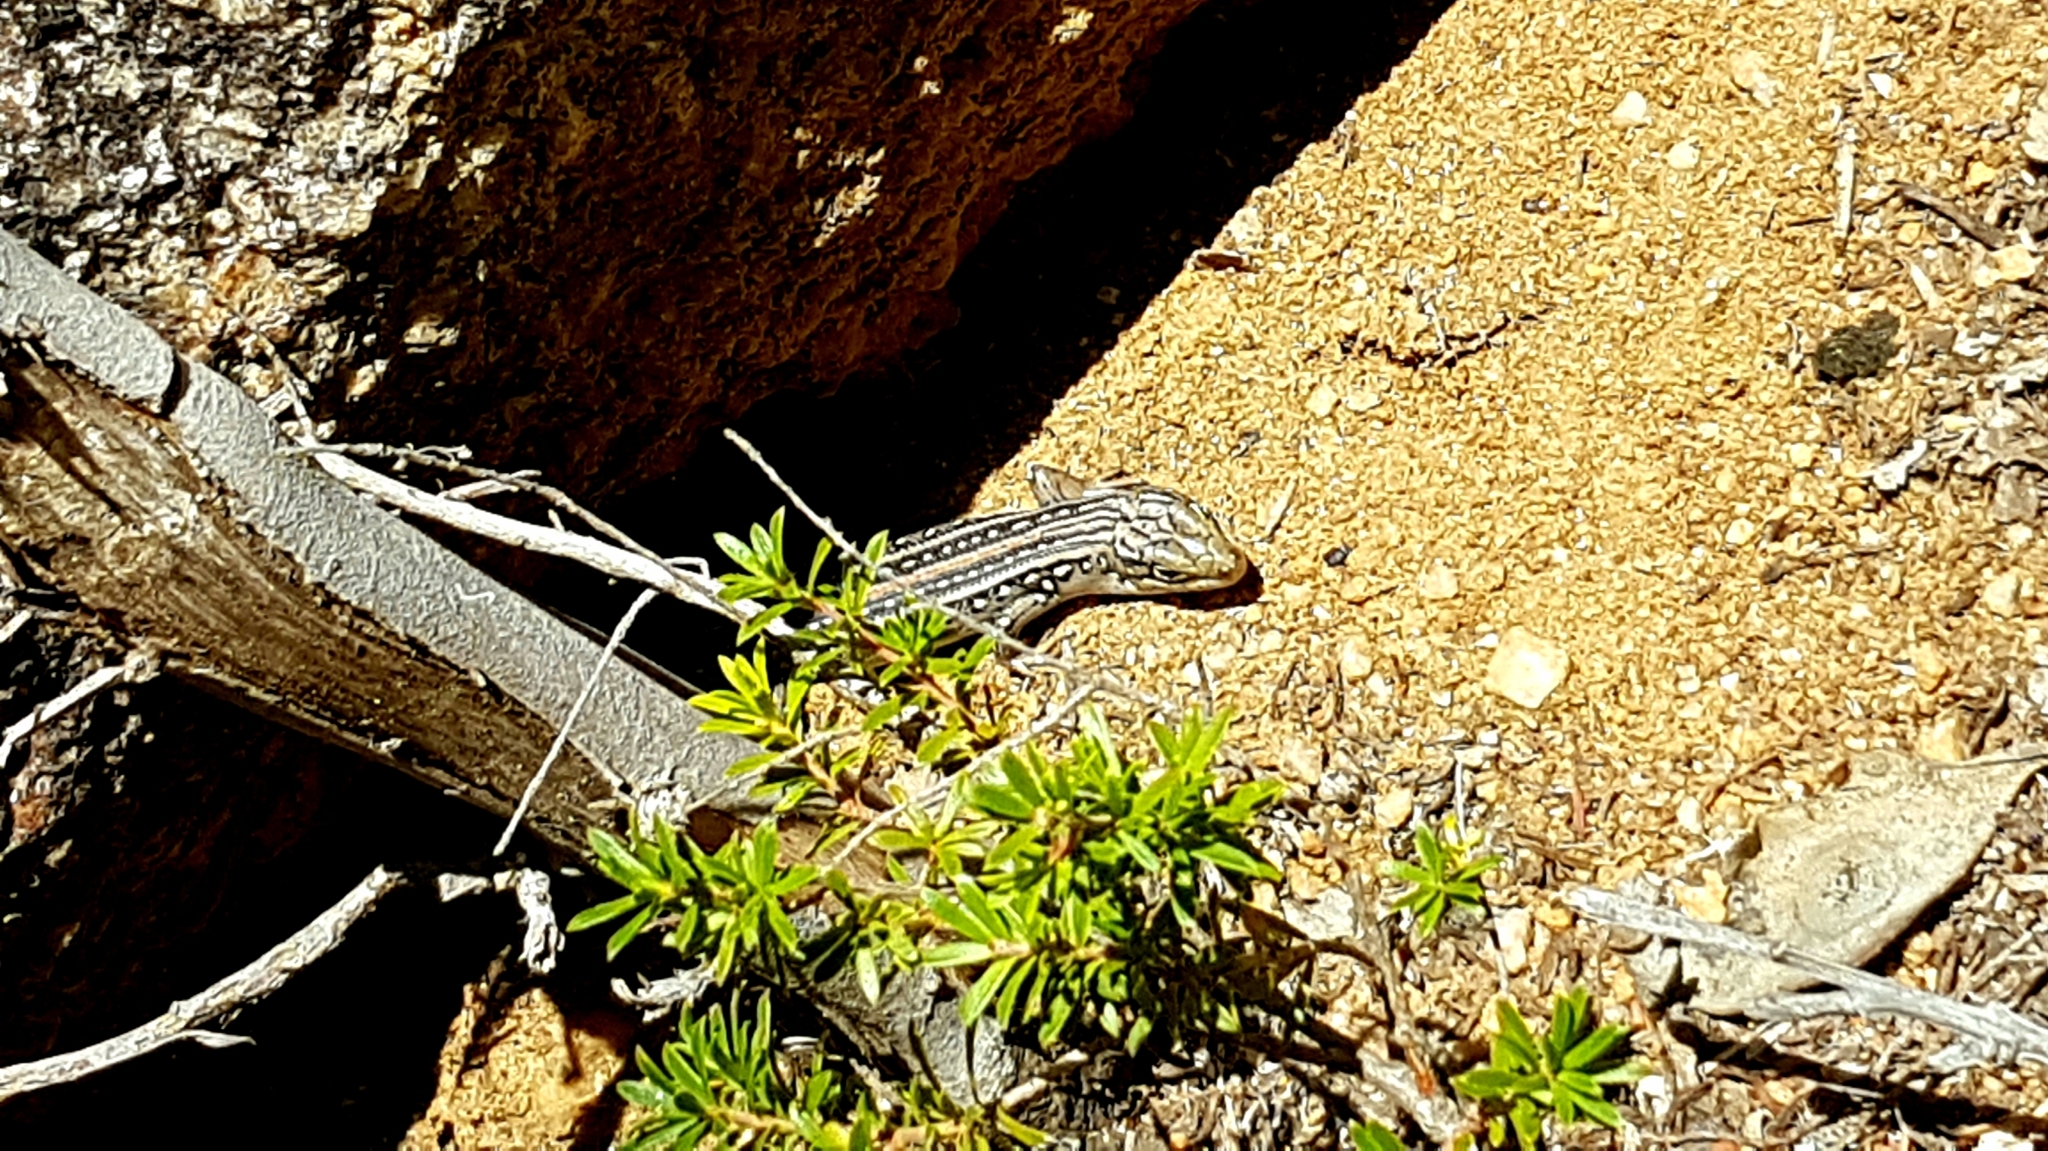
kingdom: Animalia
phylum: Chordata
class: Squamata
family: Scincidae
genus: Liopholis
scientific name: Liopholis whitii
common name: White's rock-skink
